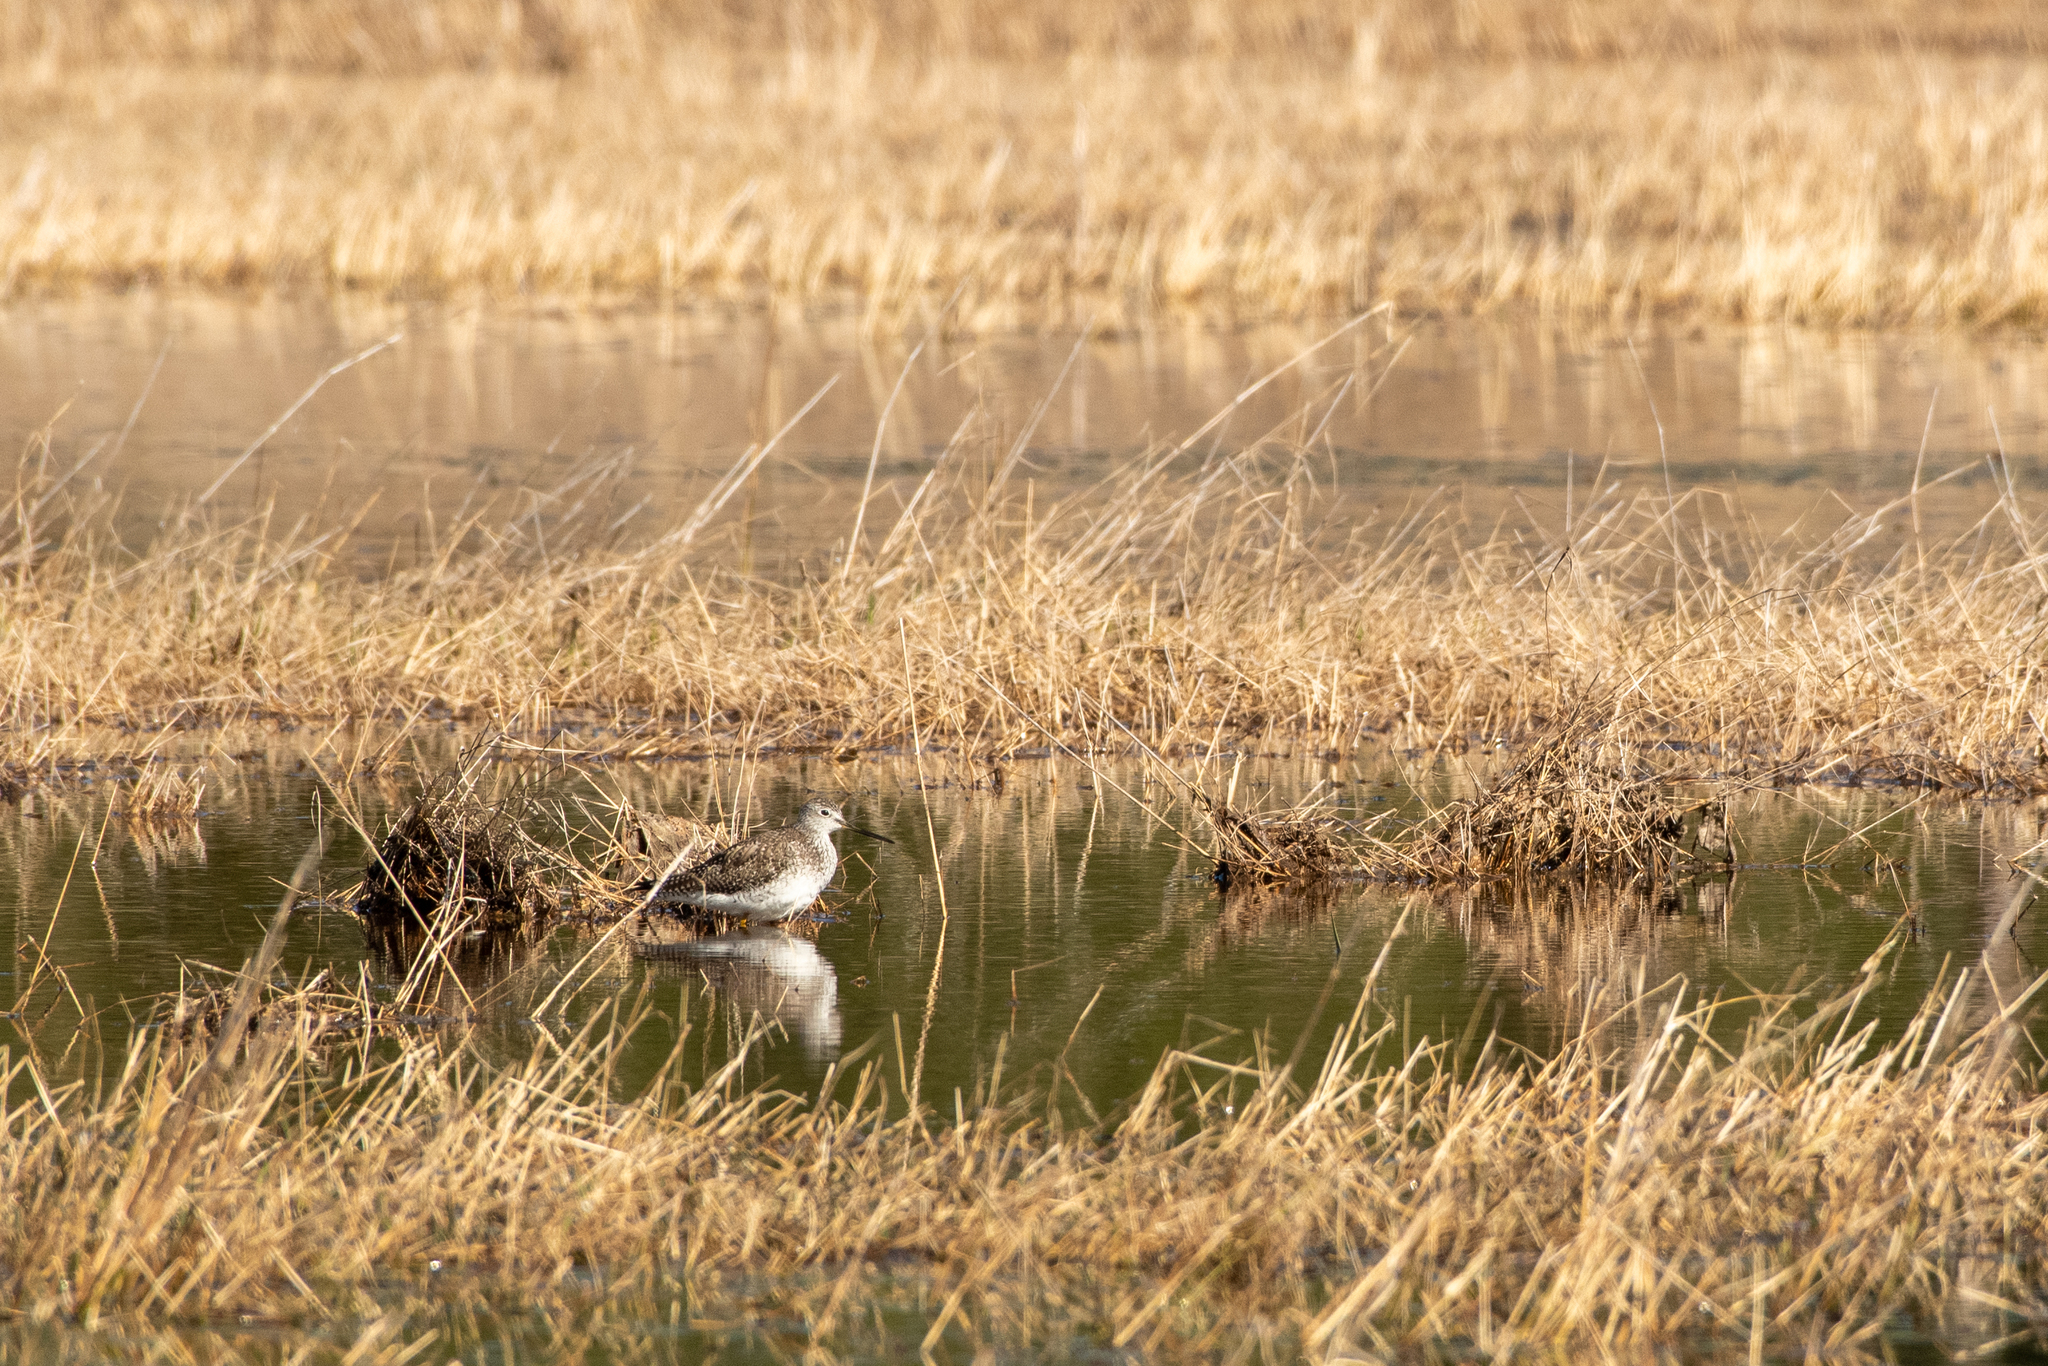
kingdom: Animalia
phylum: Chordata
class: Aves
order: Charadriiformes
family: Scolopacidae
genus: Tringa
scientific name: Tringa melanoleuca
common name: Greater yellowlegs
